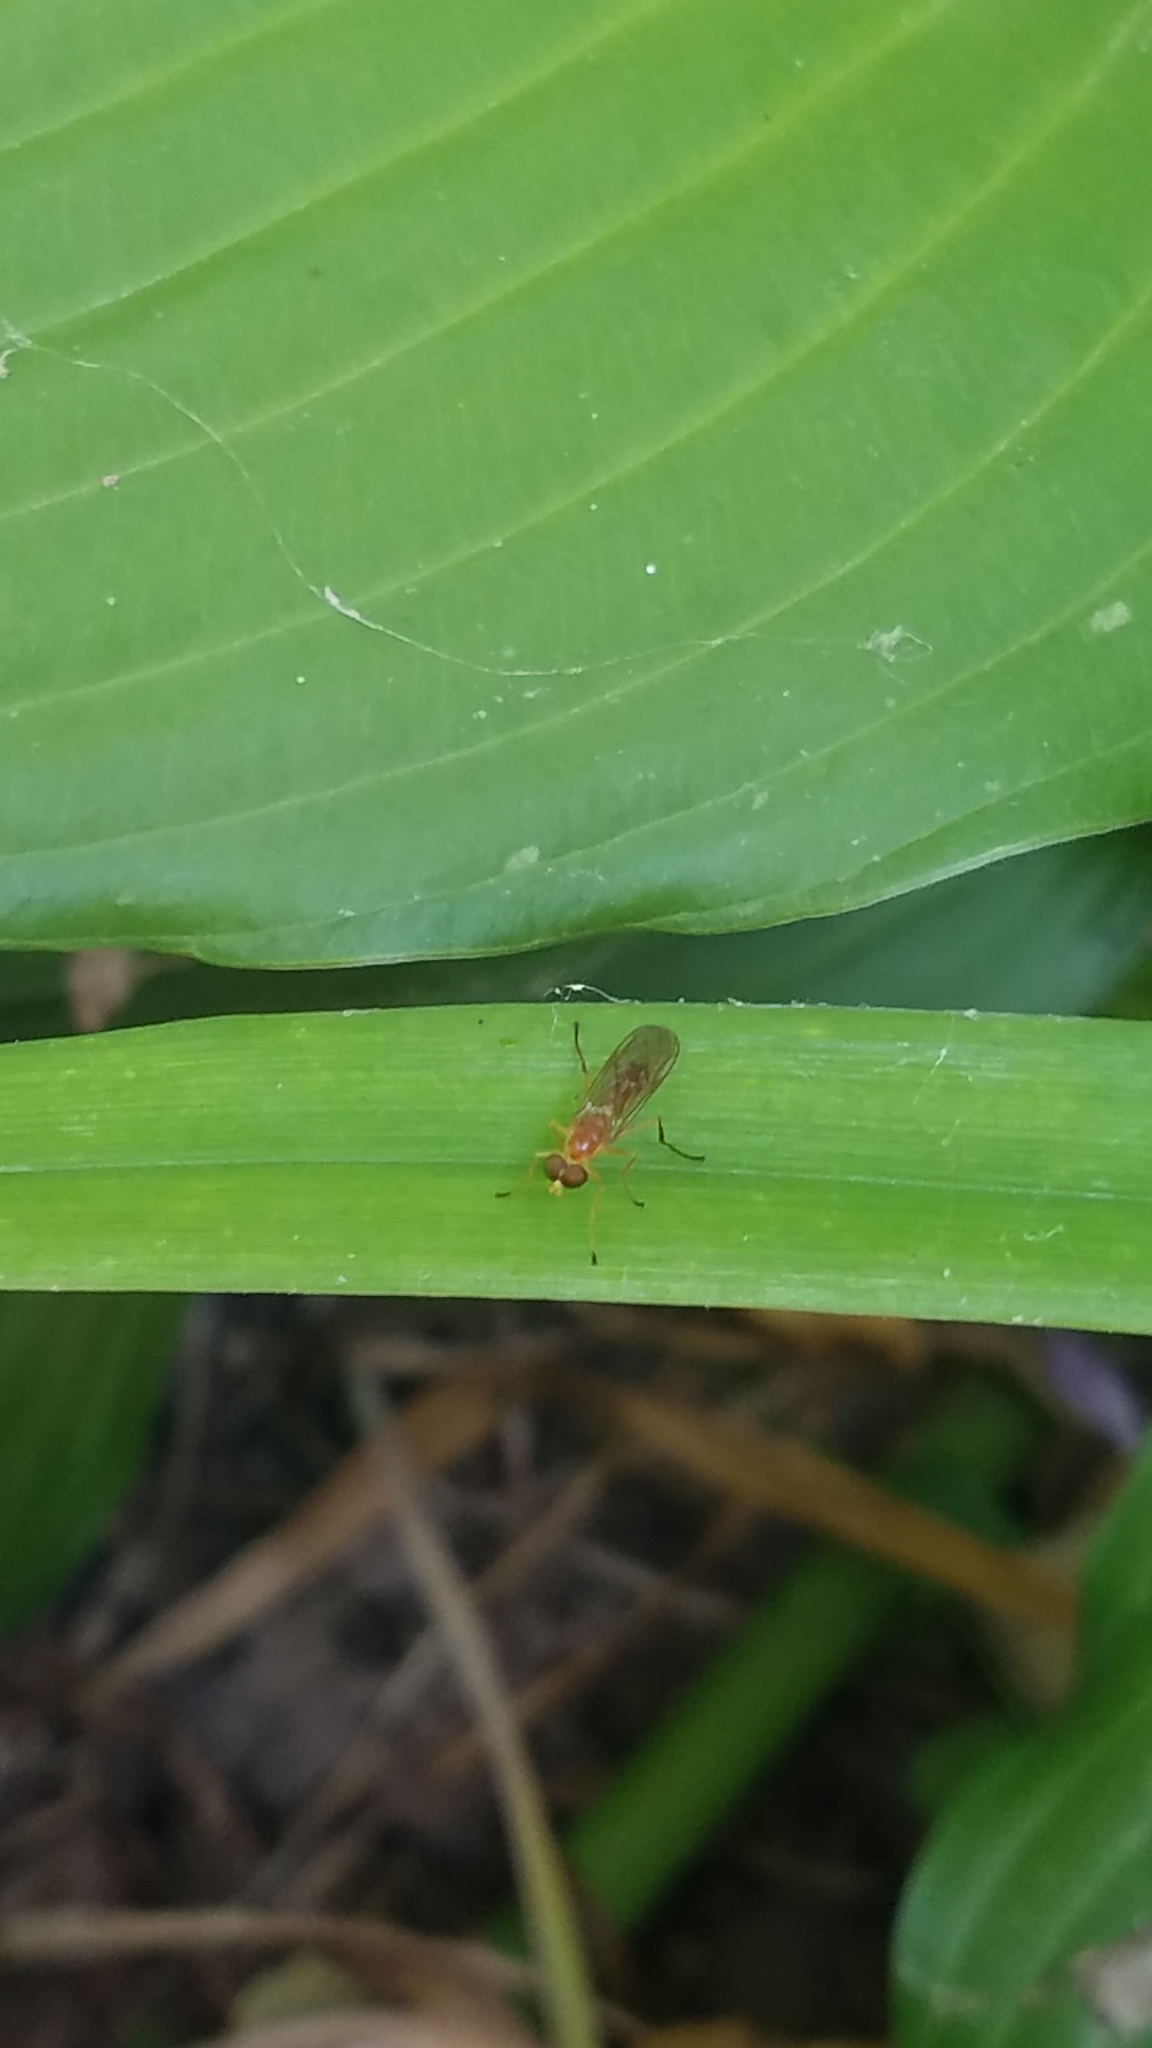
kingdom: Animalia
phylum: Arthropoda
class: Insecta
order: Diptera
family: Stratiomyidae
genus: Ptecticus
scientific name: Ptecticus trivittatus
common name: Compost fly
